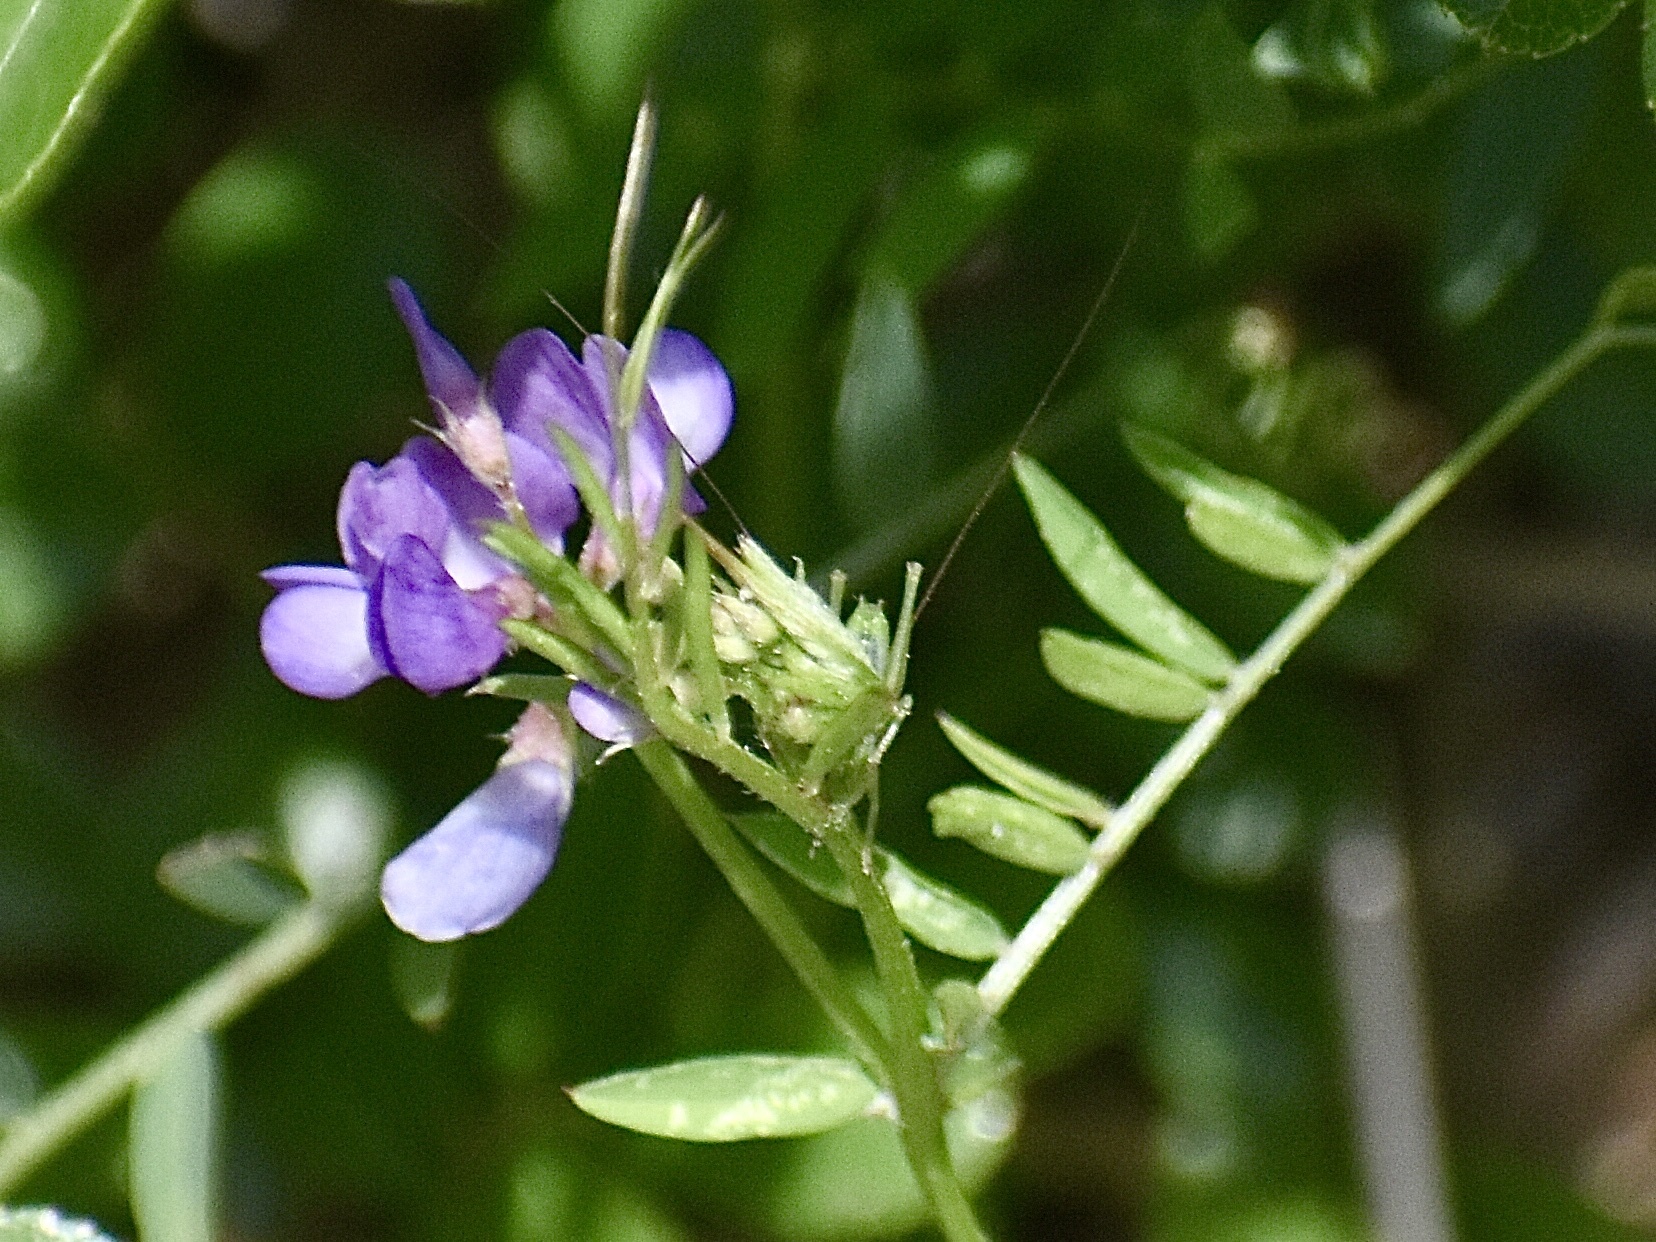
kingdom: Plantae
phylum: Tracheophyta
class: Magnoliopsida
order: Fabales
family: Fabaceae
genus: Vicia
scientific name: Vicia ludoviciana
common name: Louisiana vetch
